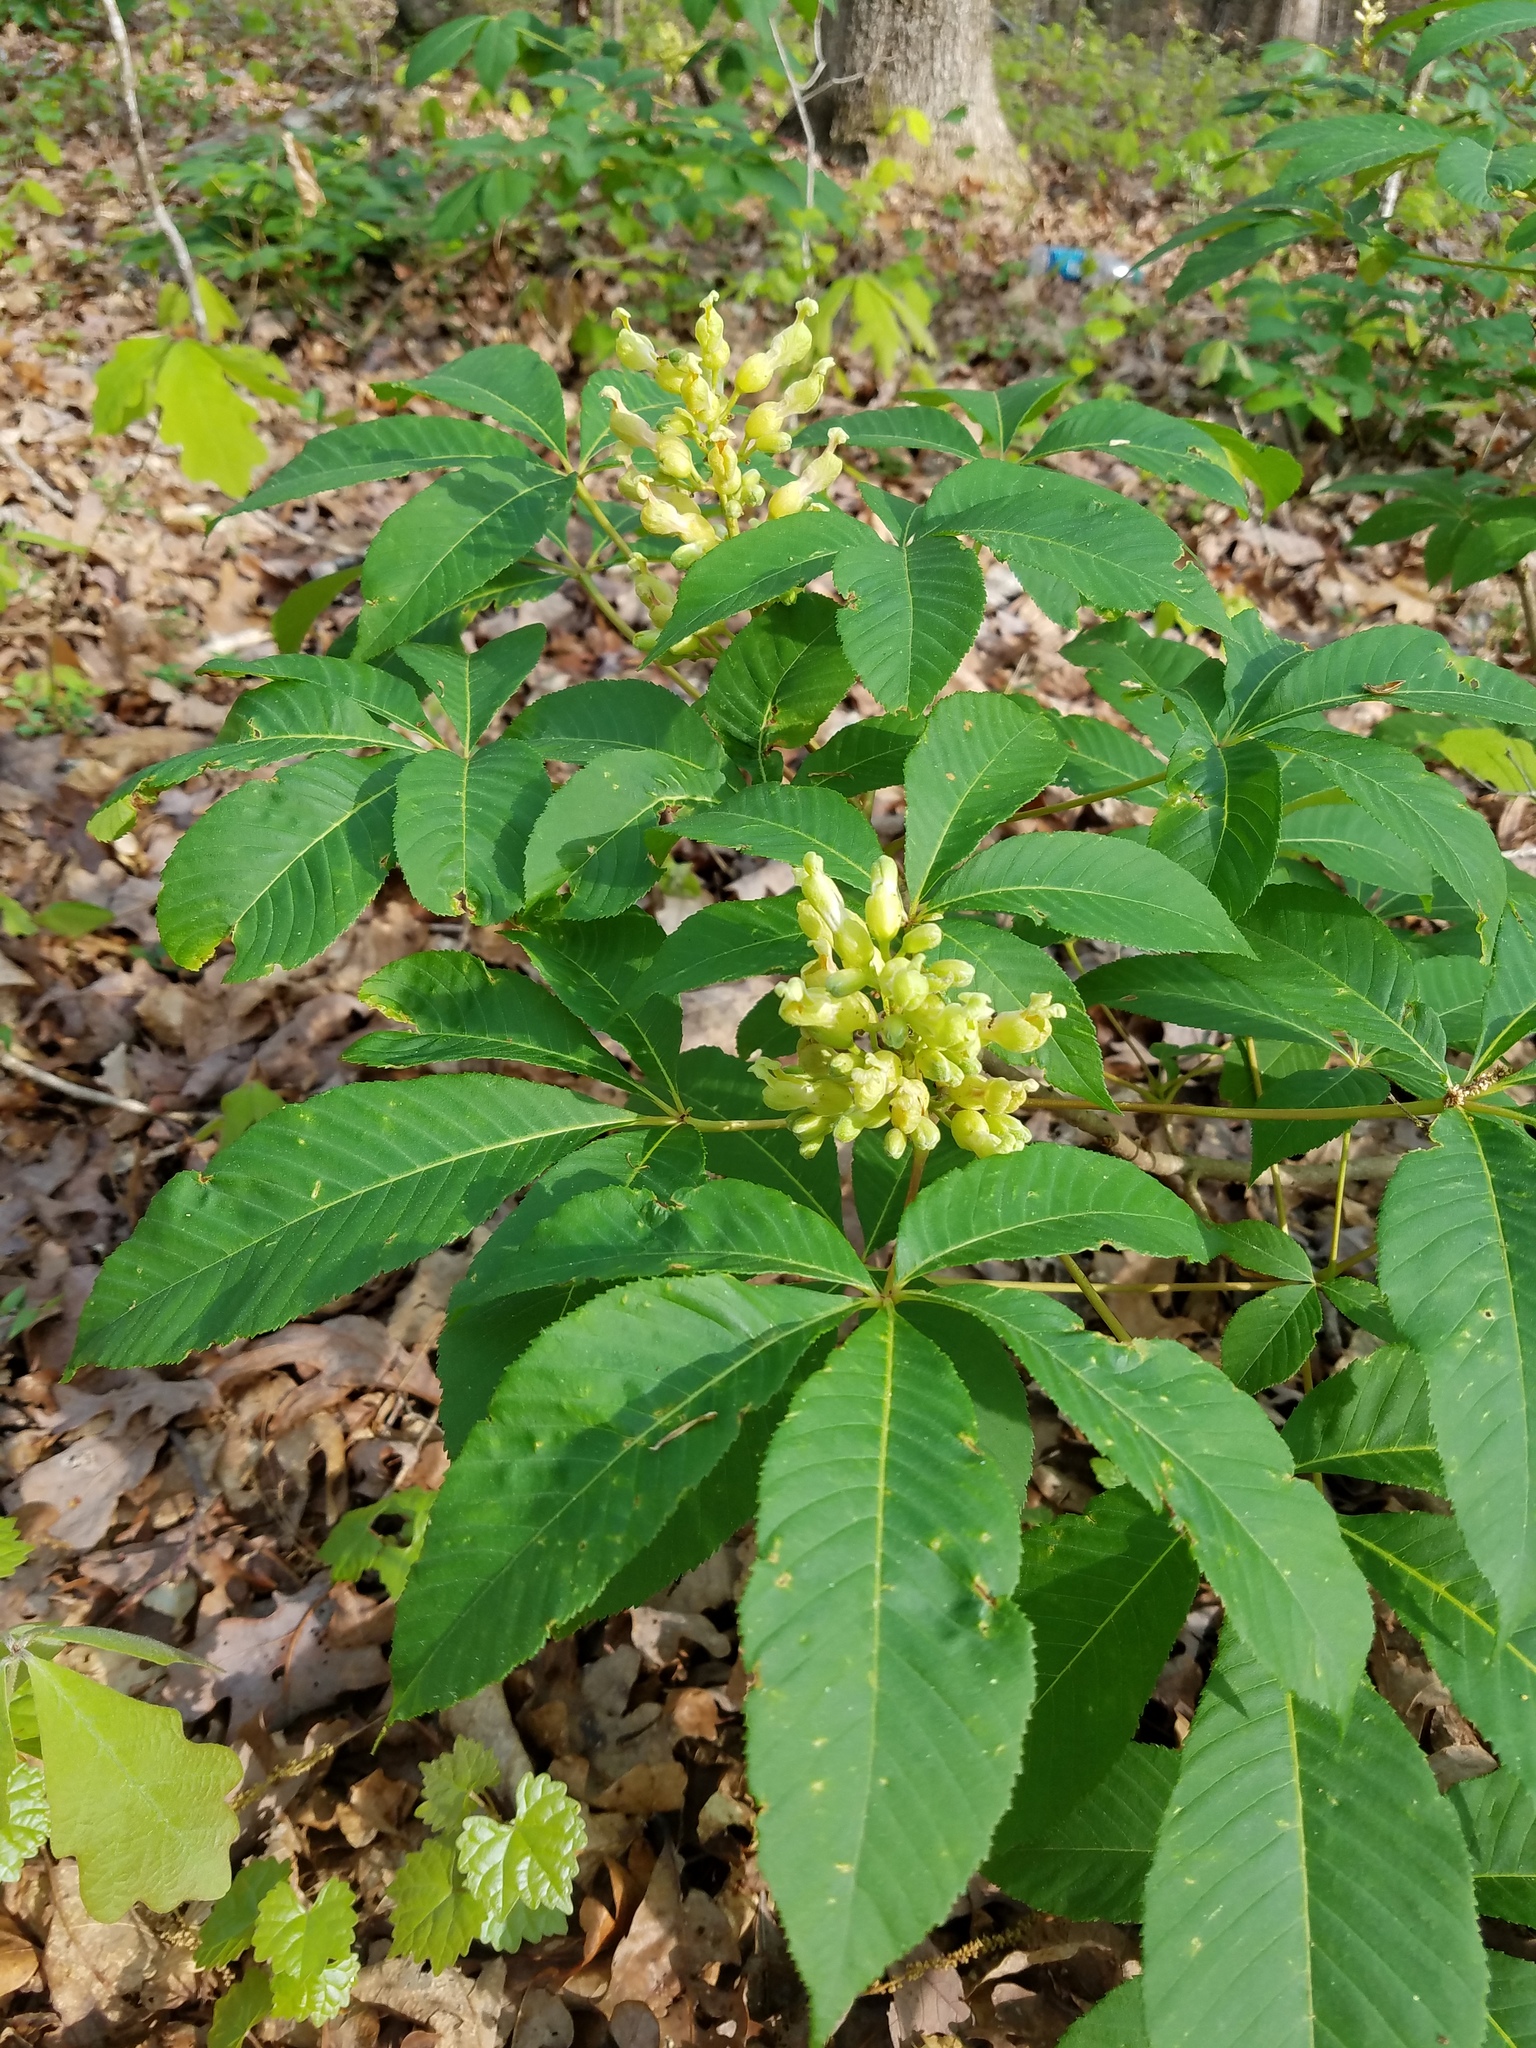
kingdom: Plantae
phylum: Tracheophyta
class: Magnoliopsida
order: Sapindales
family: Sapindaceae
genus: Aesculus
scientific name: Aesculus sylvatica
